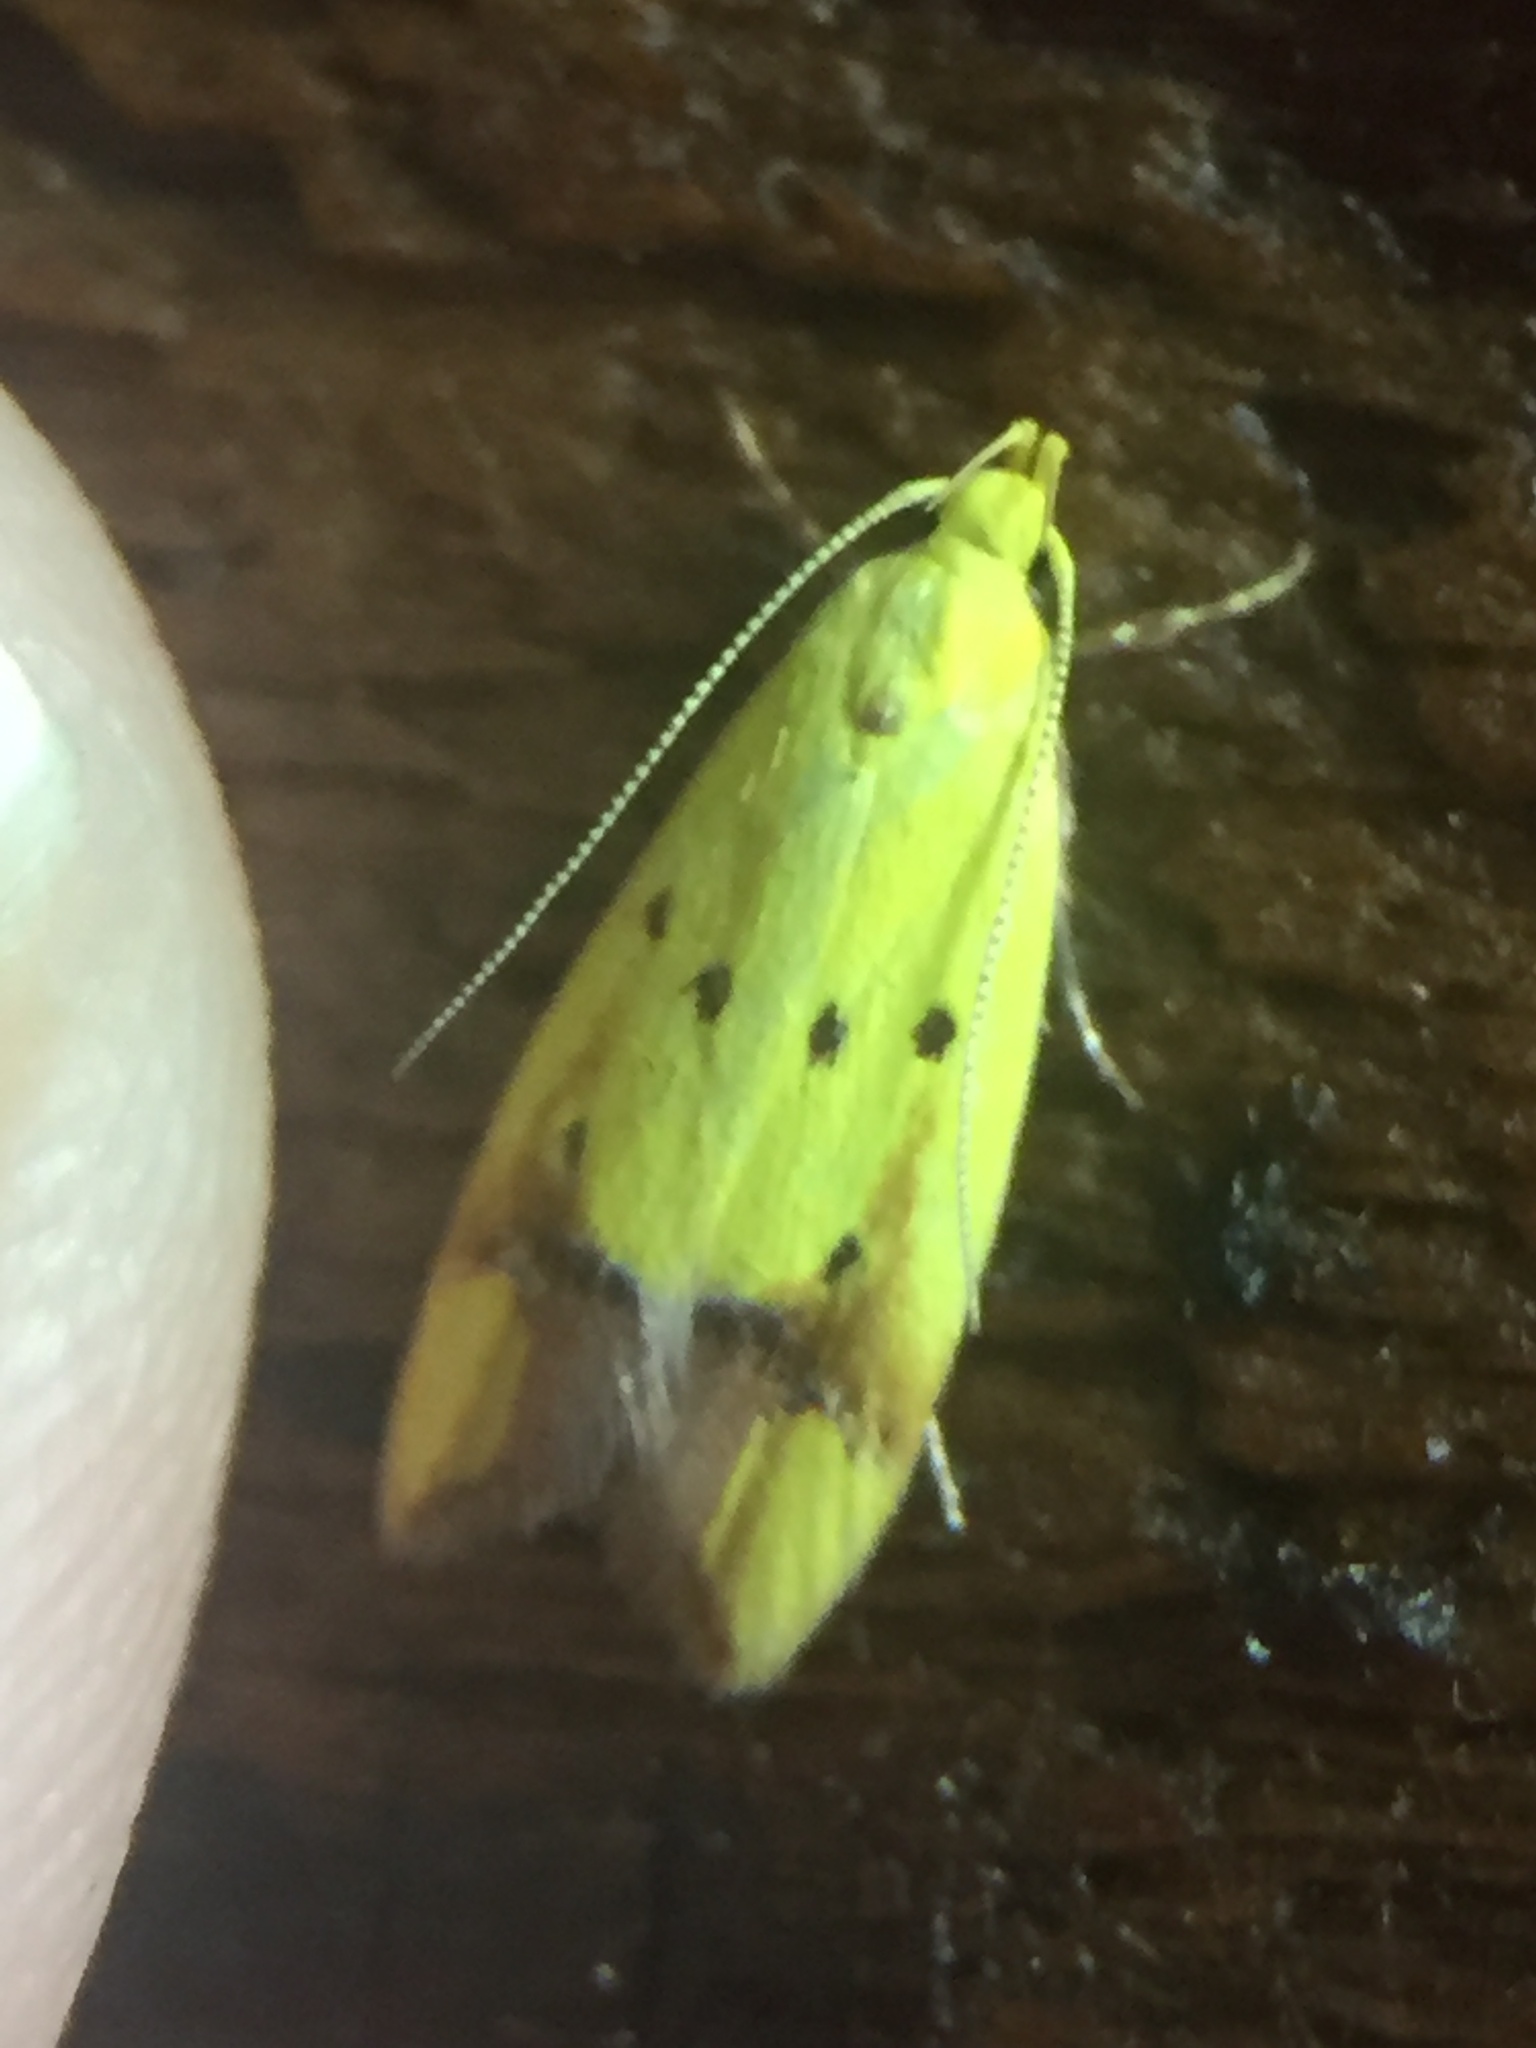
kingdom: Animalia
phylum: Arthropoda
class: Insecta
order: Lepidoptera
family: Oecophoridae
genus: Gymnobathra
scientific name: Gymnobathra flavidella
